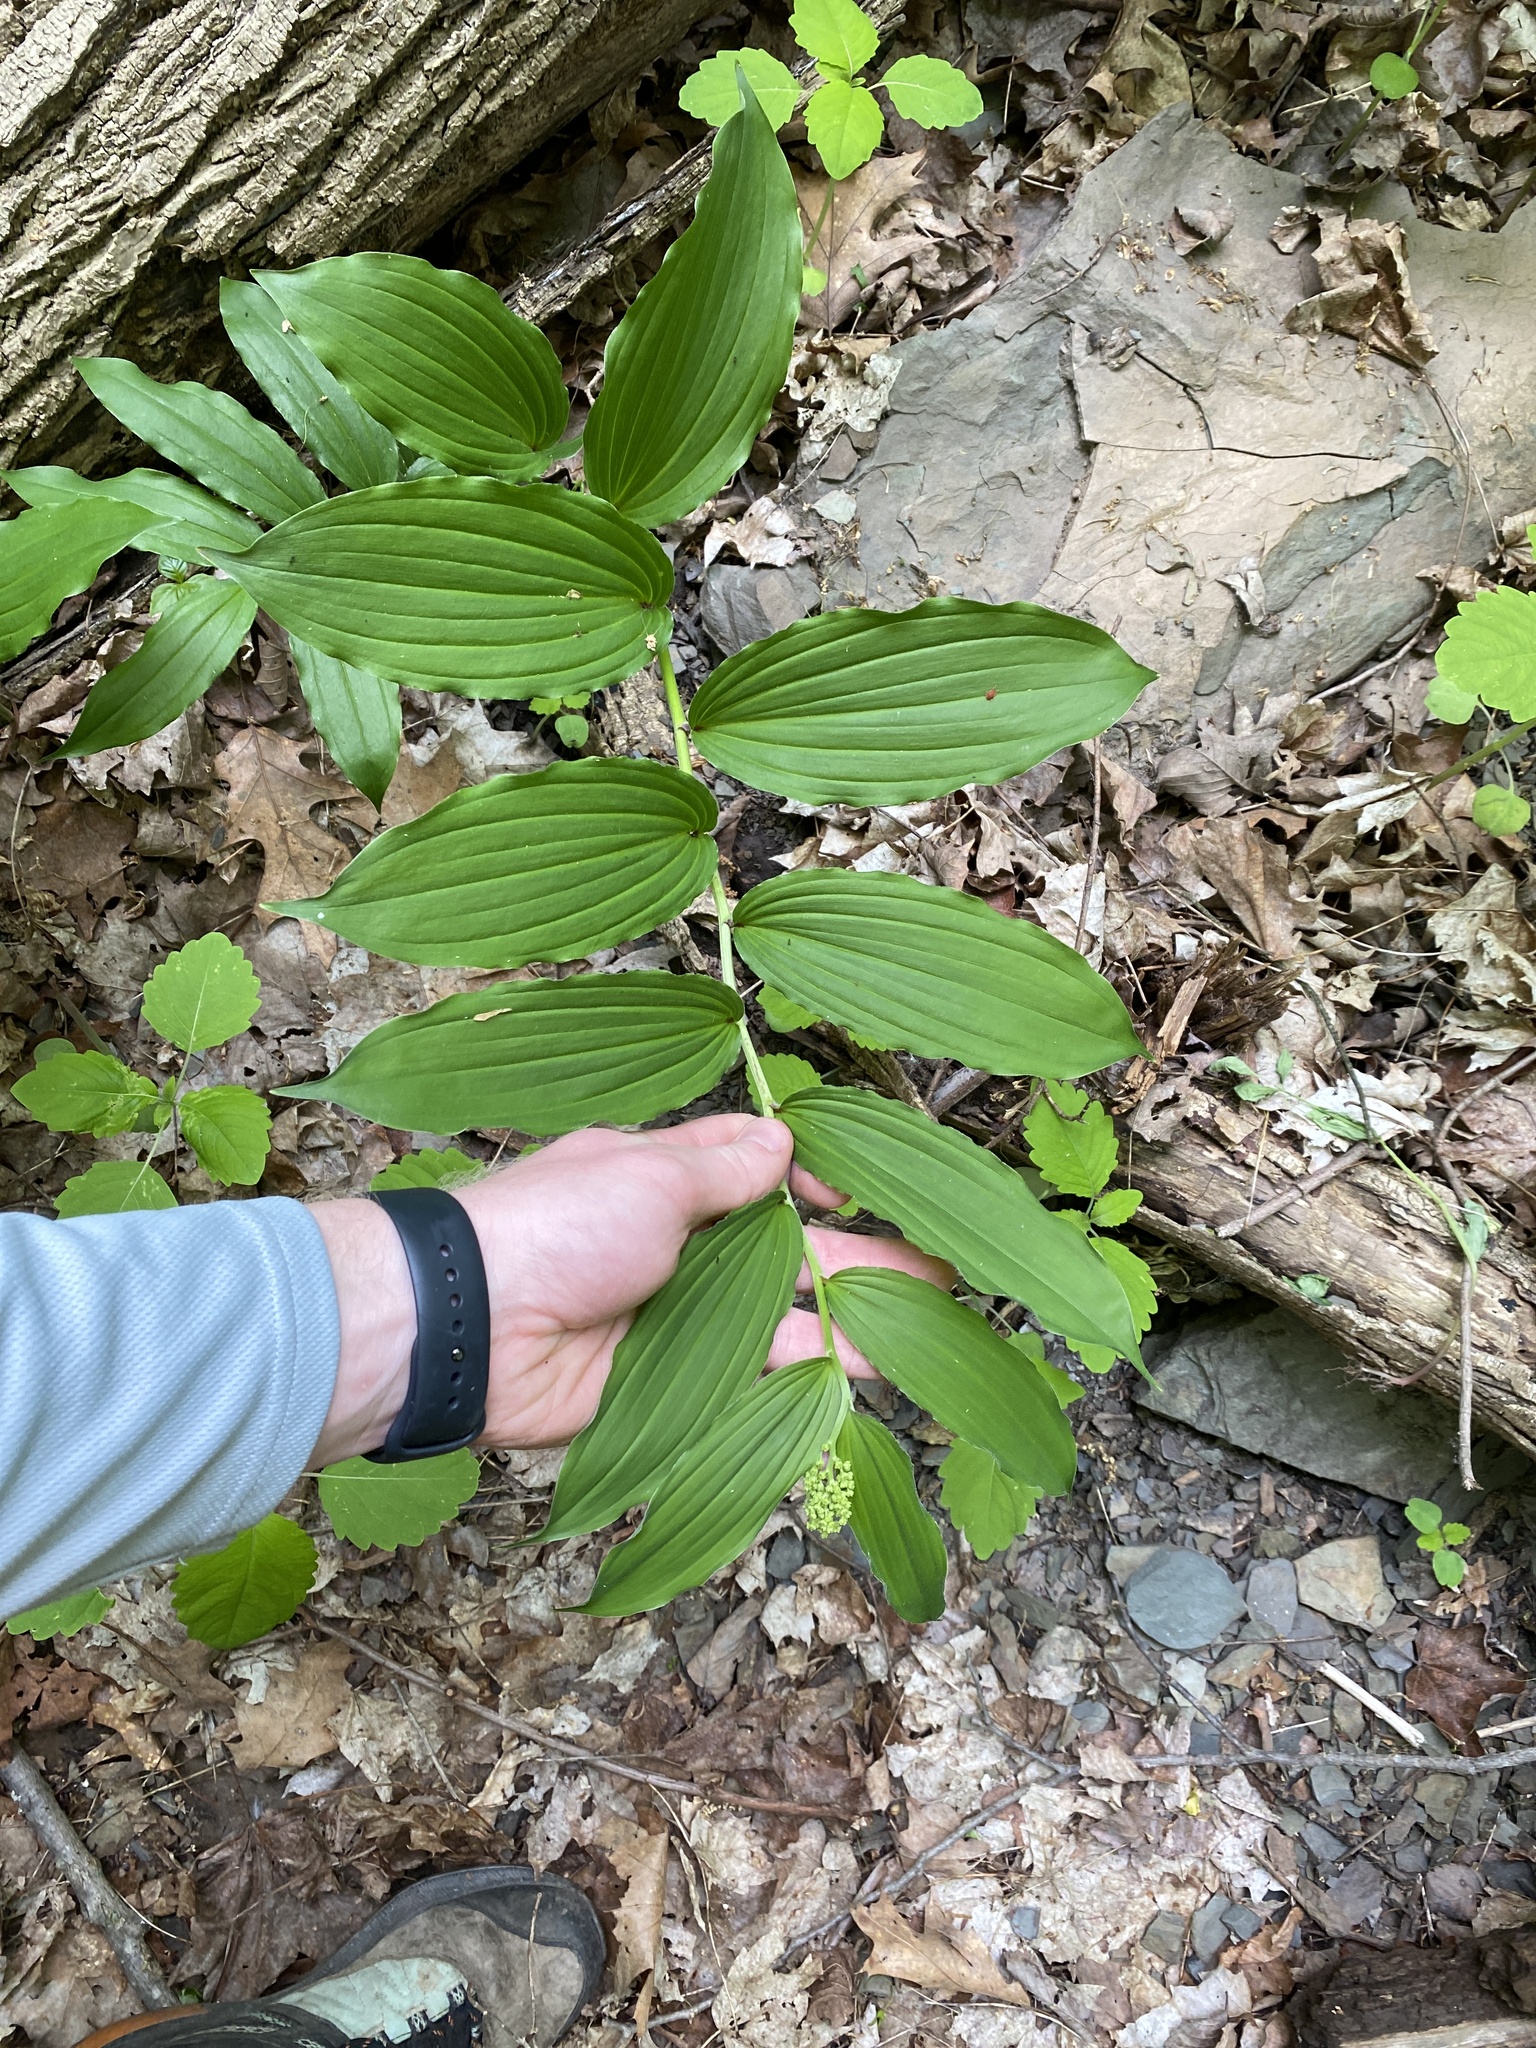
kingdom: Plantae
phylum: Tracheophyta
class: Liliopsida
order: Asparagales
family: Asparagaceae
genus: Maianthemum
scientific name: Maianthemum racemosum
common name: False spikenard
